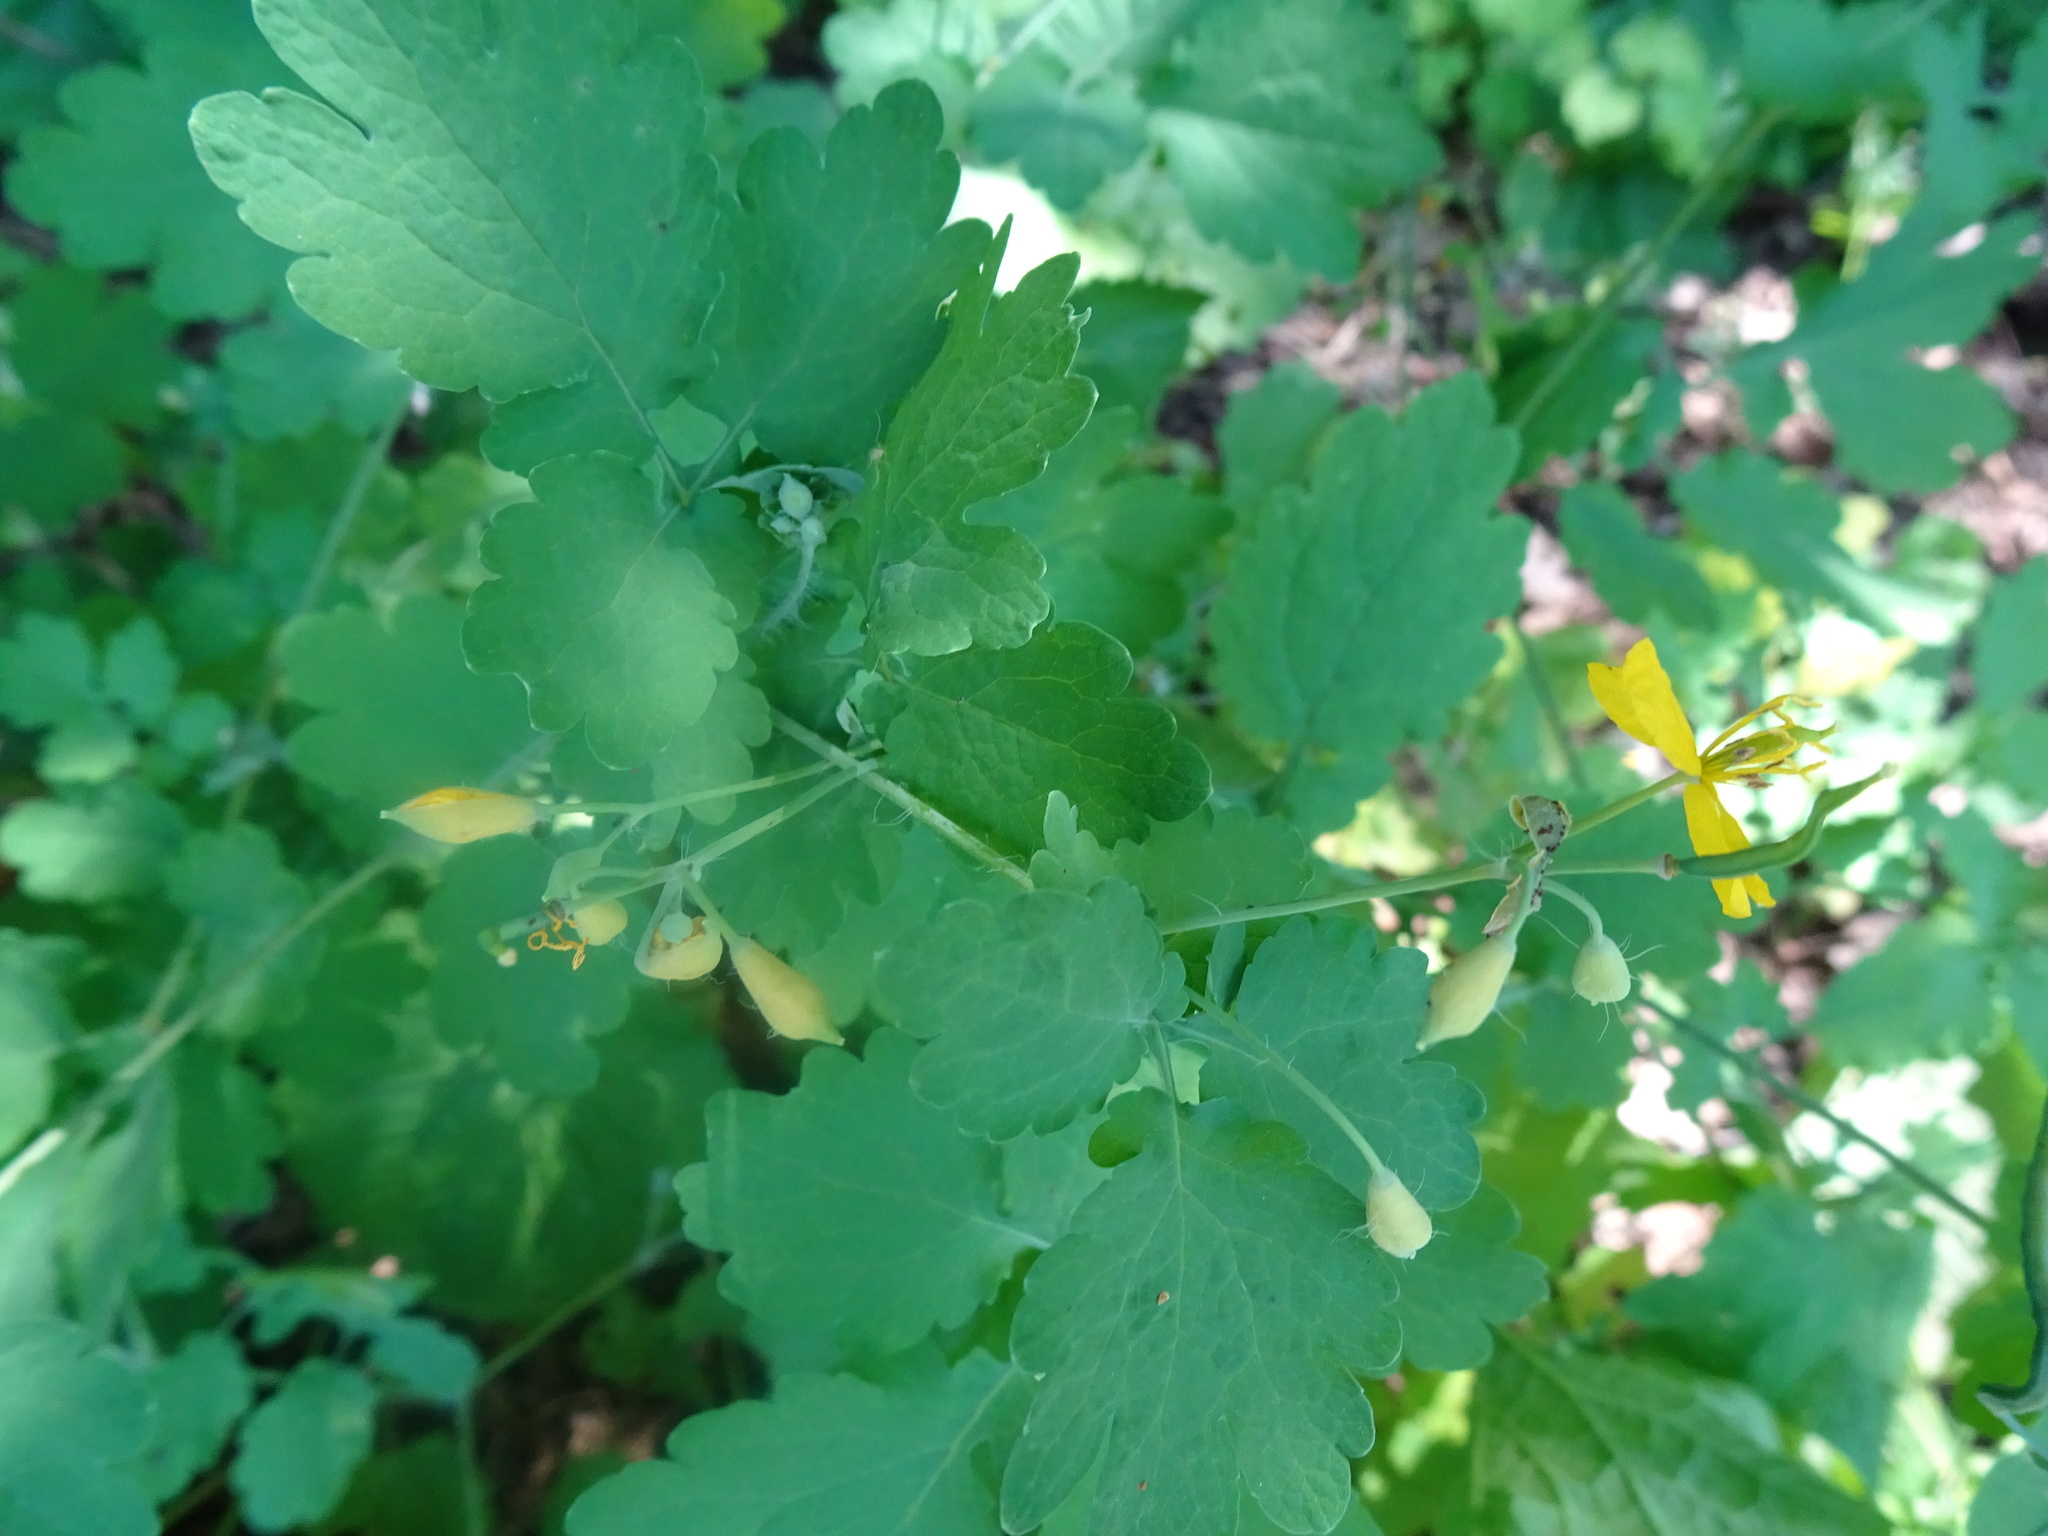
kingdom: Plantae
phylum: Tracheophyta
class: Magnoliopsida
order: Ranunculales
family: Papaveraceae
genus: Chelidonium
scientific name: Chelidonium majus
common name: Greater celandine
